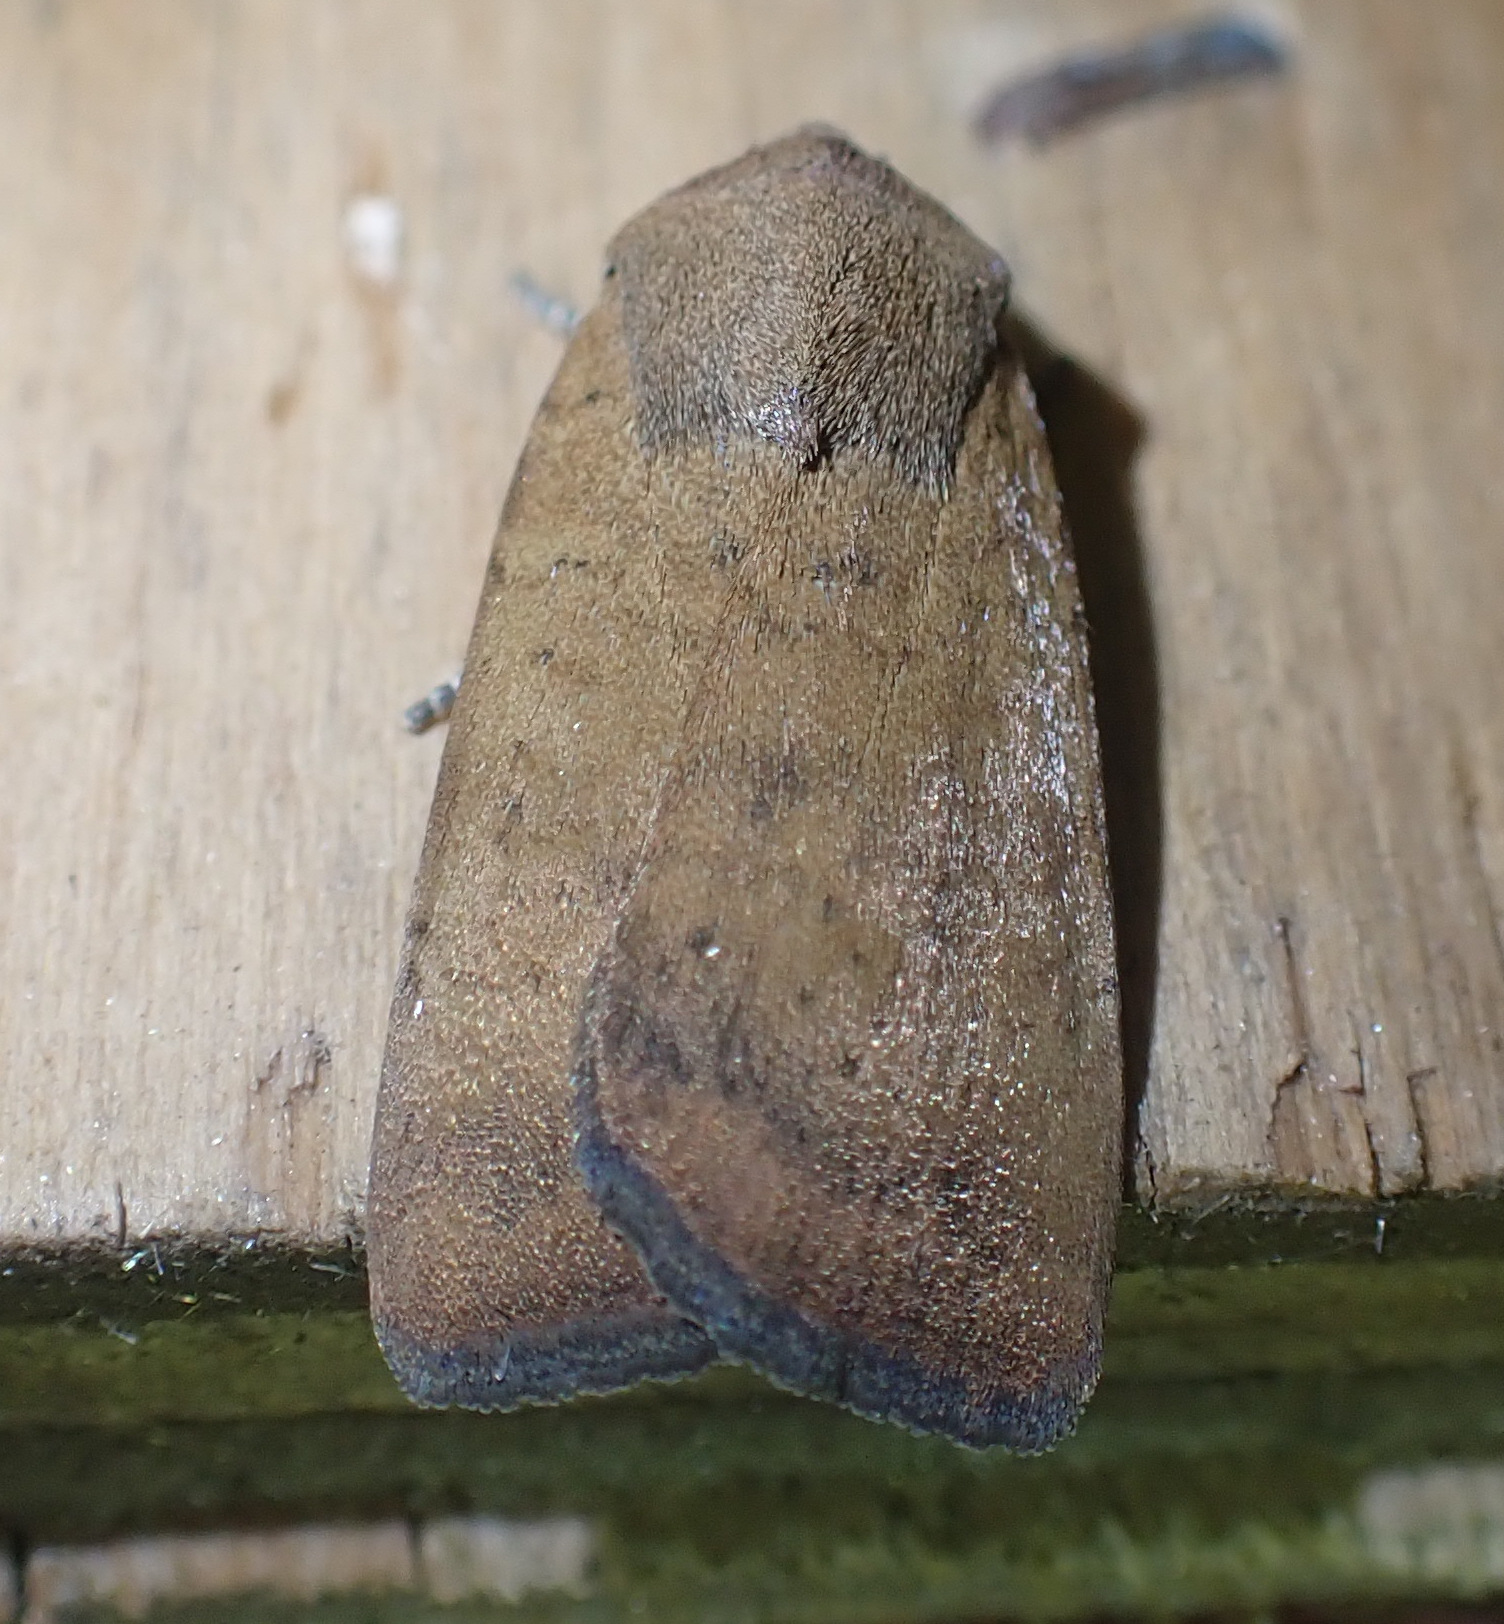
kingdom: Animalia
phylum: Arthropoda
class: Insecta
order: Lepidoptera
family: Noctuidae
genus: Noctua
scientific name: Noctua interjecta
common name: Least yellow underwing
